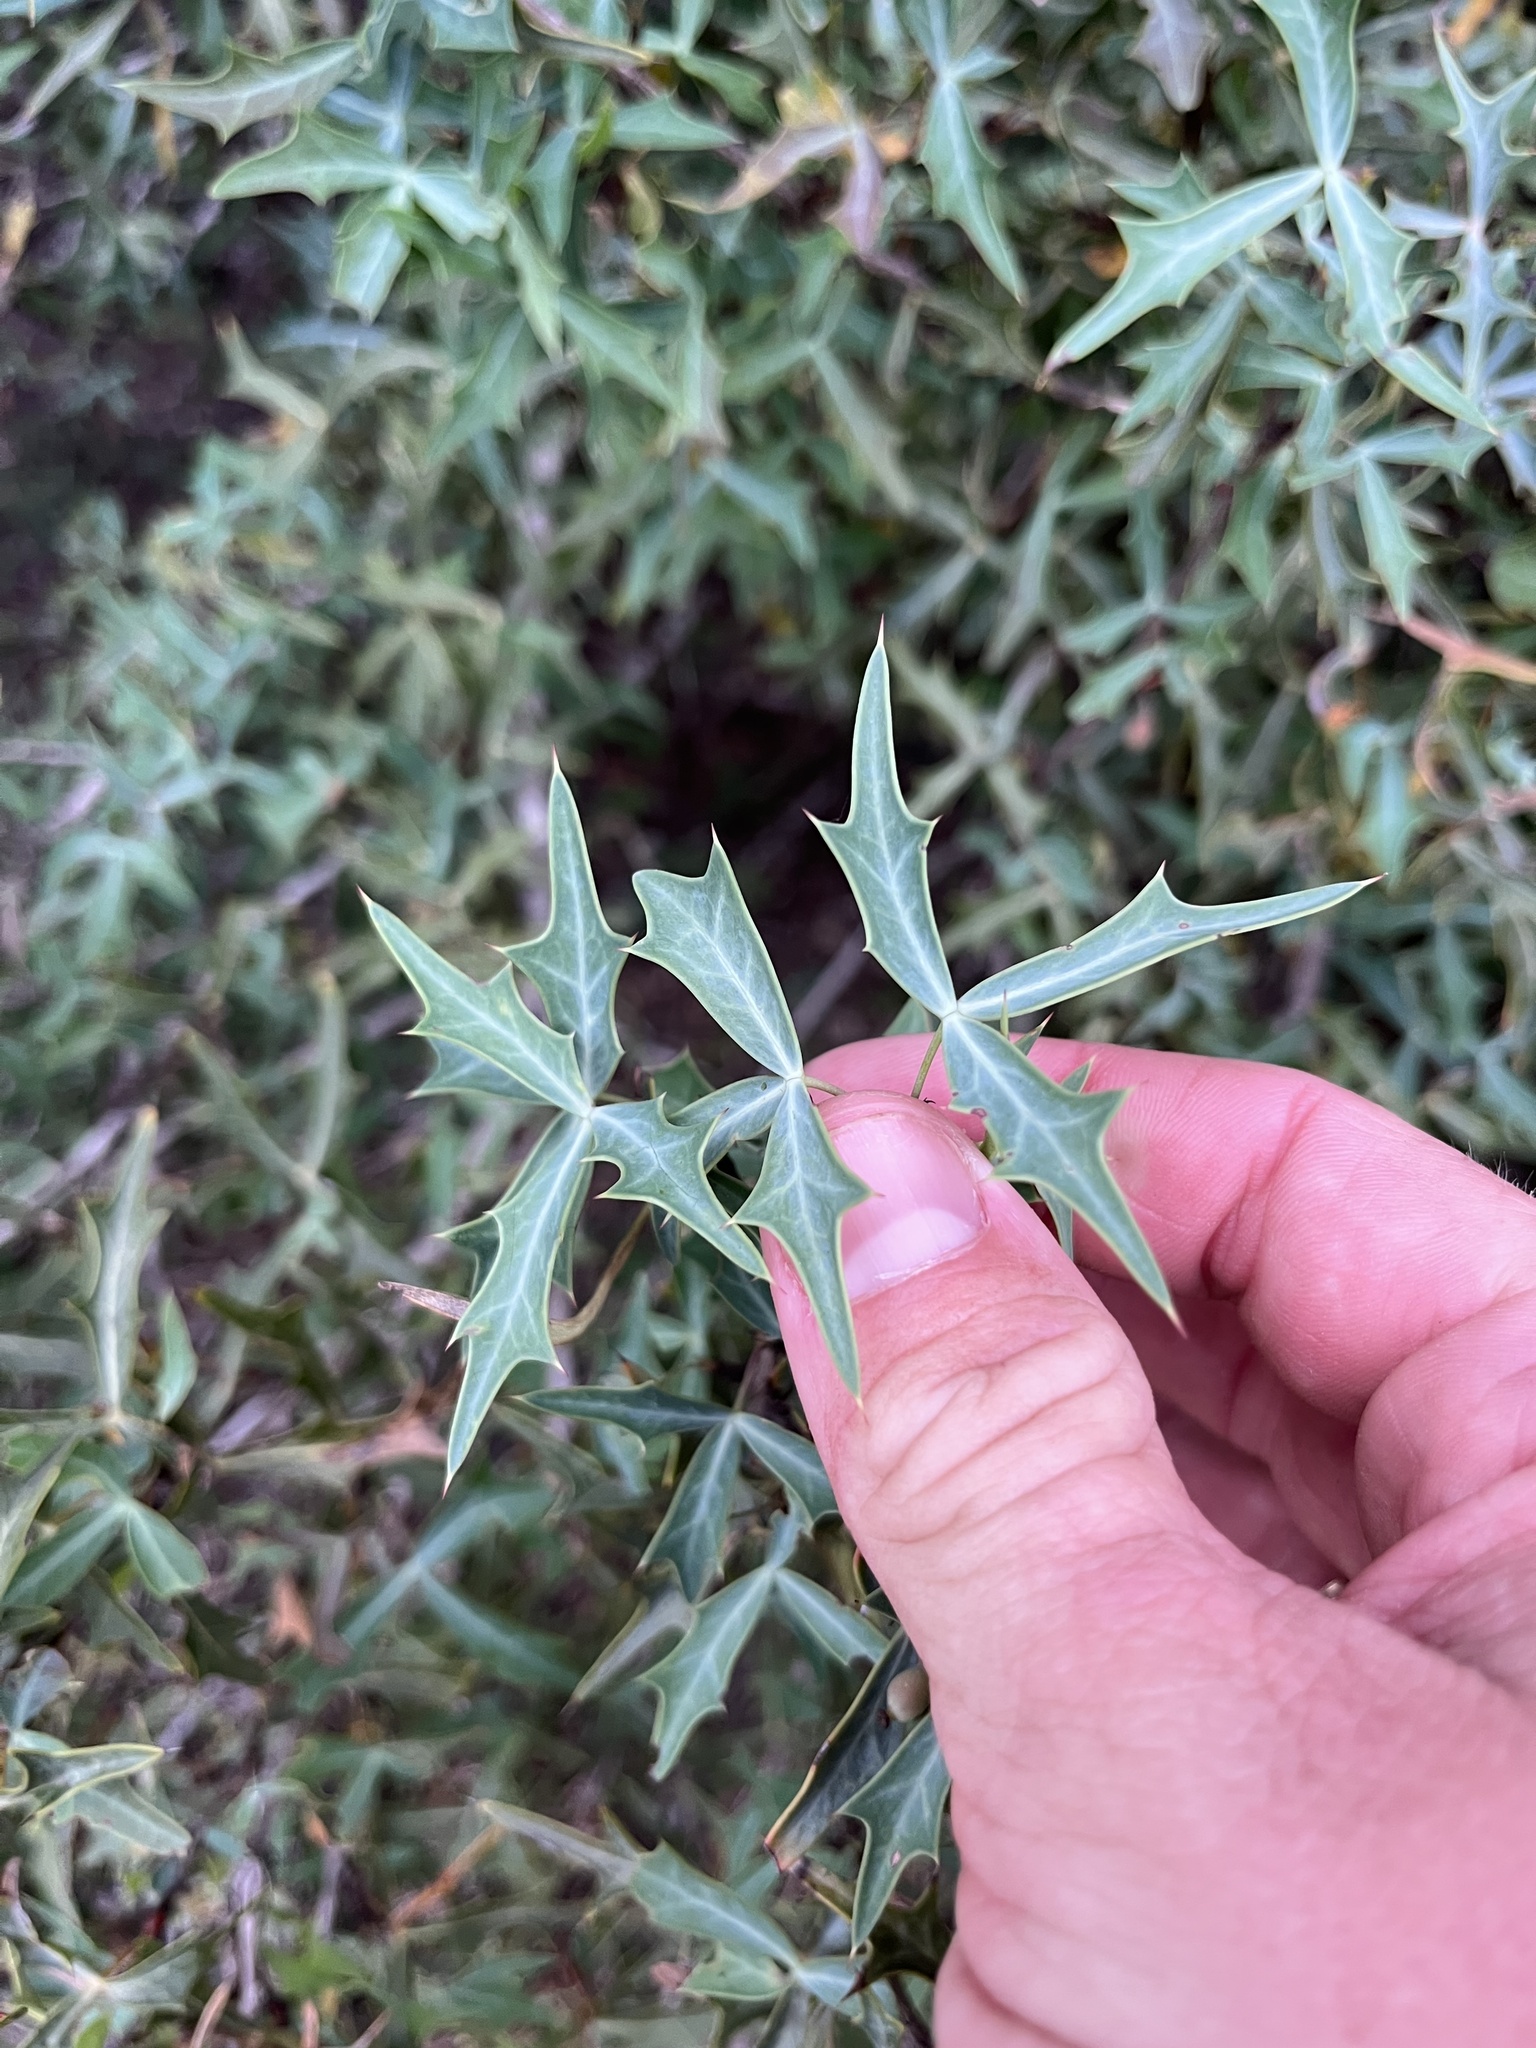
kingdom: Plantae
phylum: Tracheophyta
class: Magnoliopsida
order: Ranunculales
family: Berberidaceae
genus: Alloberberis
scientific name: Alloberberis trifoliolata
